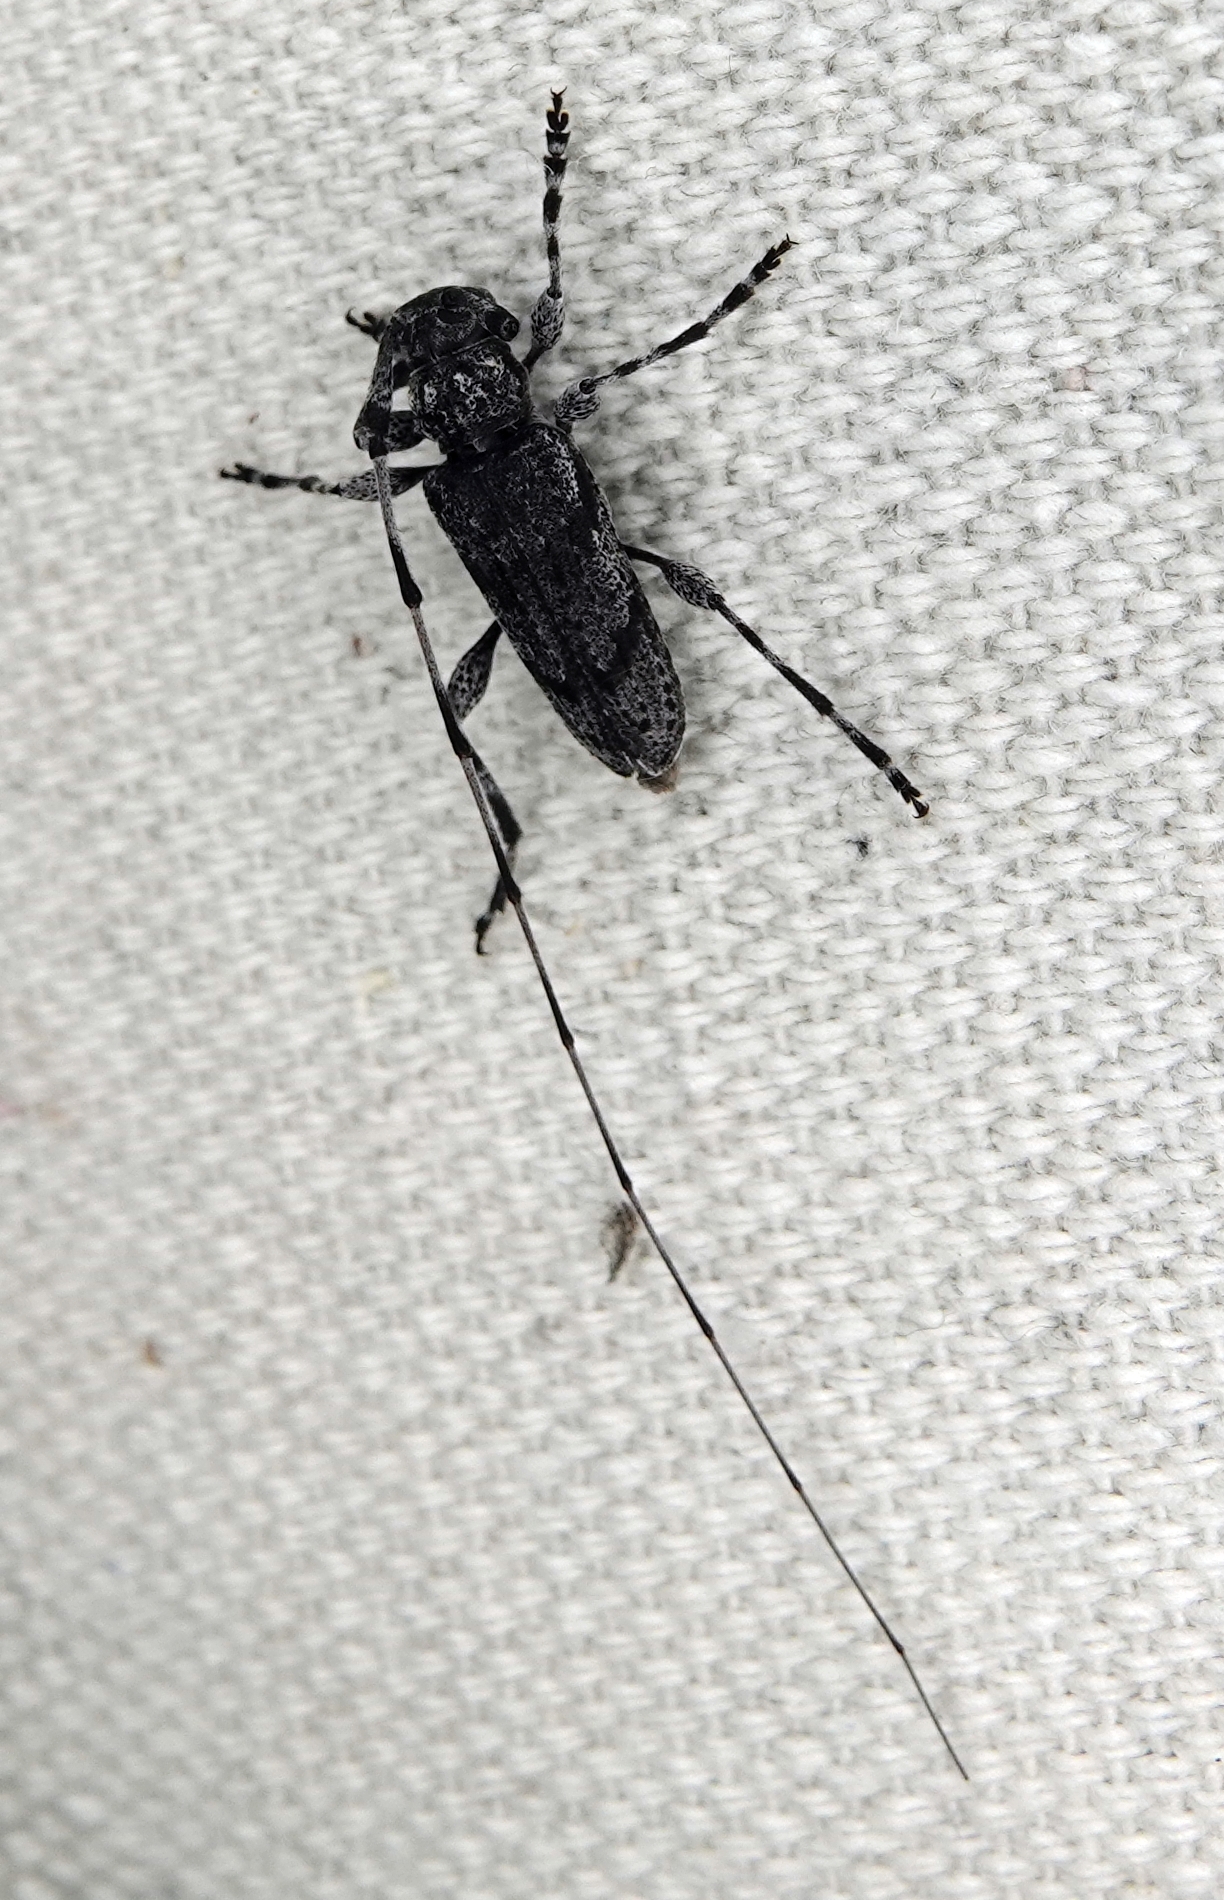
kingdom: Animalia
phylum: Arthropoda
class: Insecta
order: Coleoptera
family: Cerambycidae
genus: Acanthocinus
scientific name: Acanthocinus obliquus
